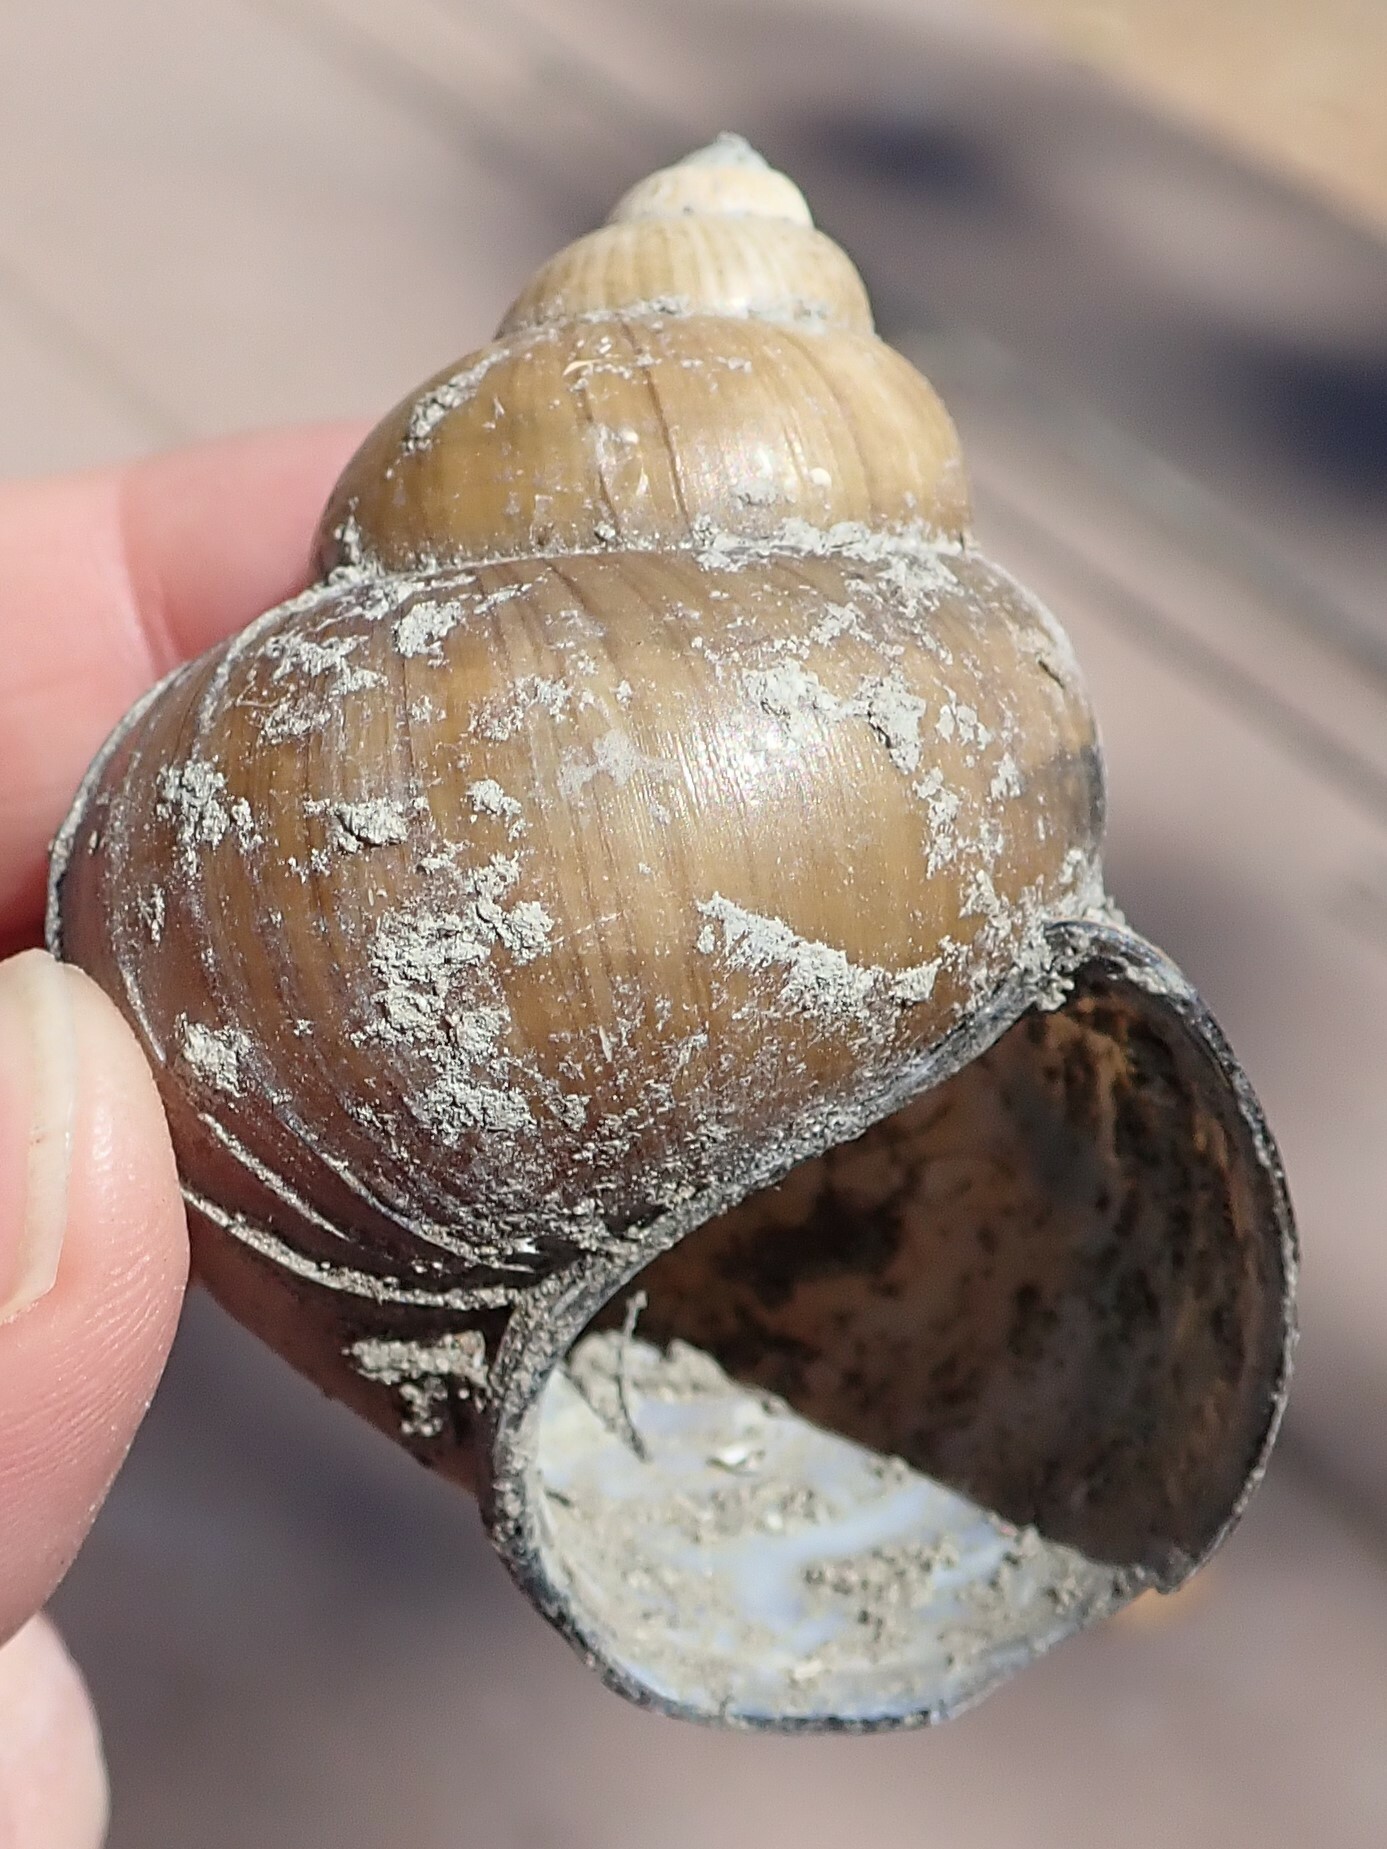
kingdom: Animalia
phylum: Mollusca
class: Gastropoda
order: Architaenioglossa
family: Viviparidae
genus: Cipangopaludina
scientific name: Cipangopaludina chinensis
